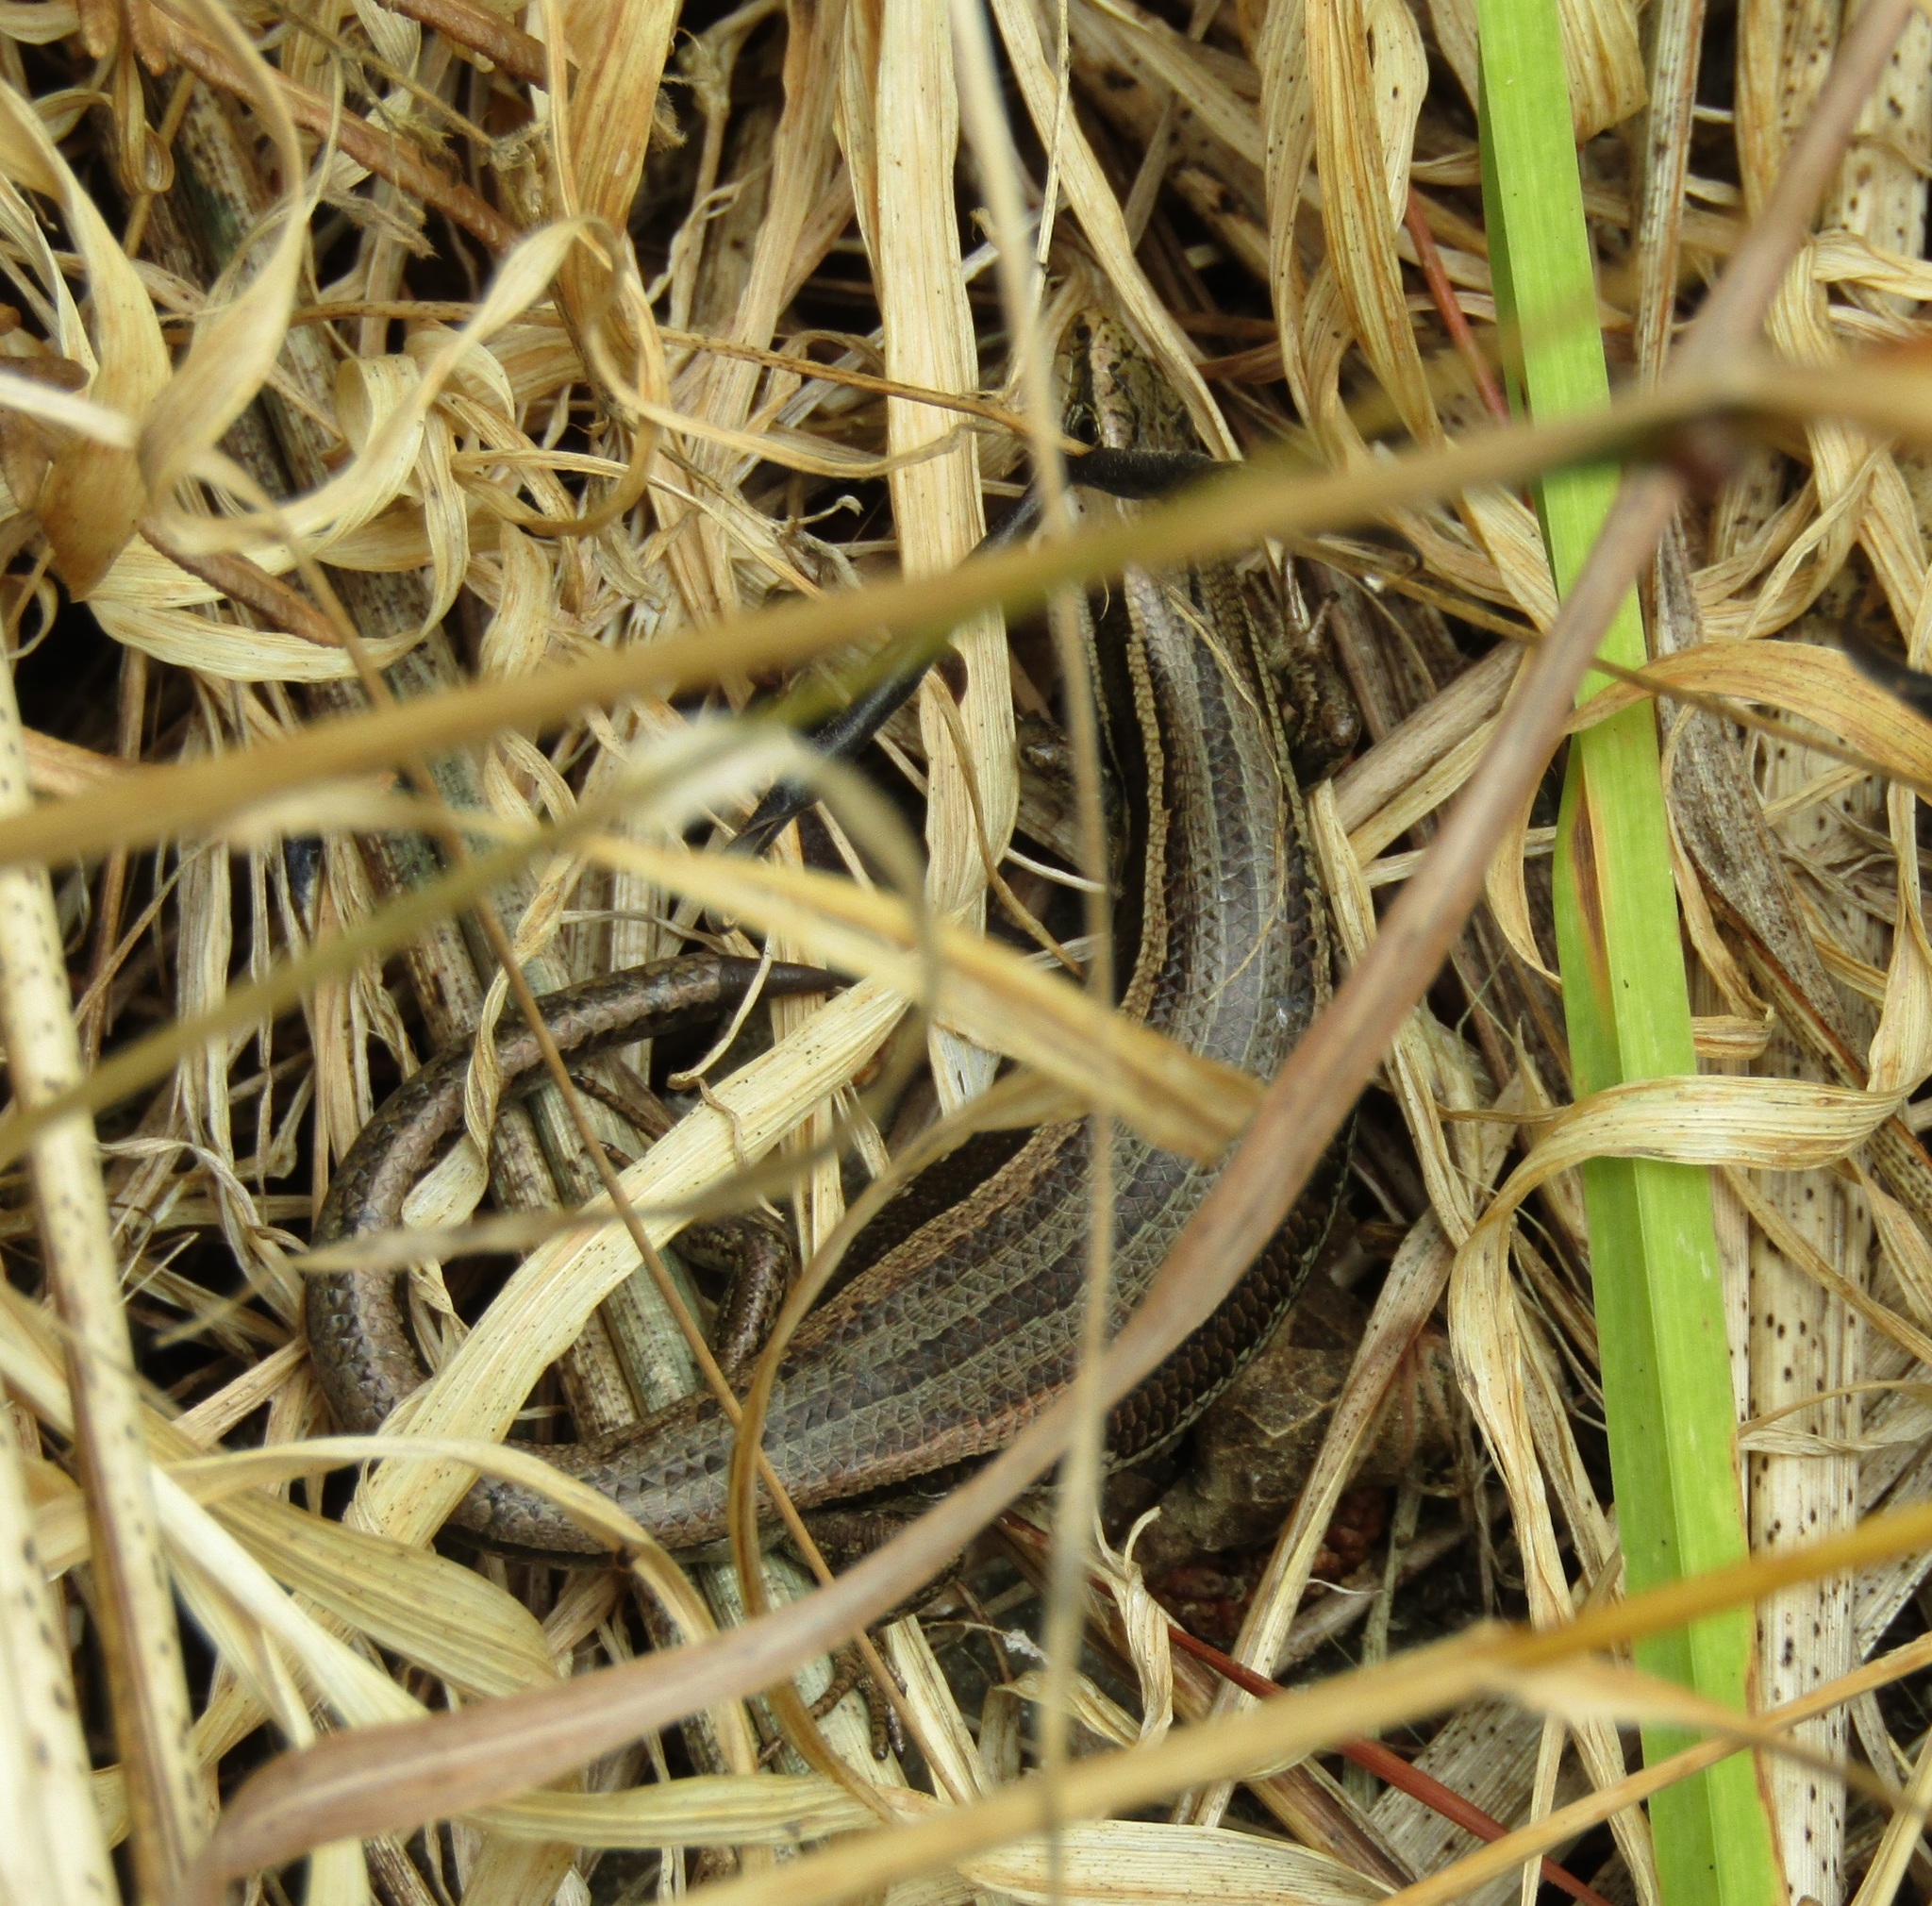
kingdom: Animalia
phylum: Chordata
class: Squamata
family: Scincidae
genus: Oligosoma
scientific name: Oligosoma polychroma
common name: Common new zealand skink
